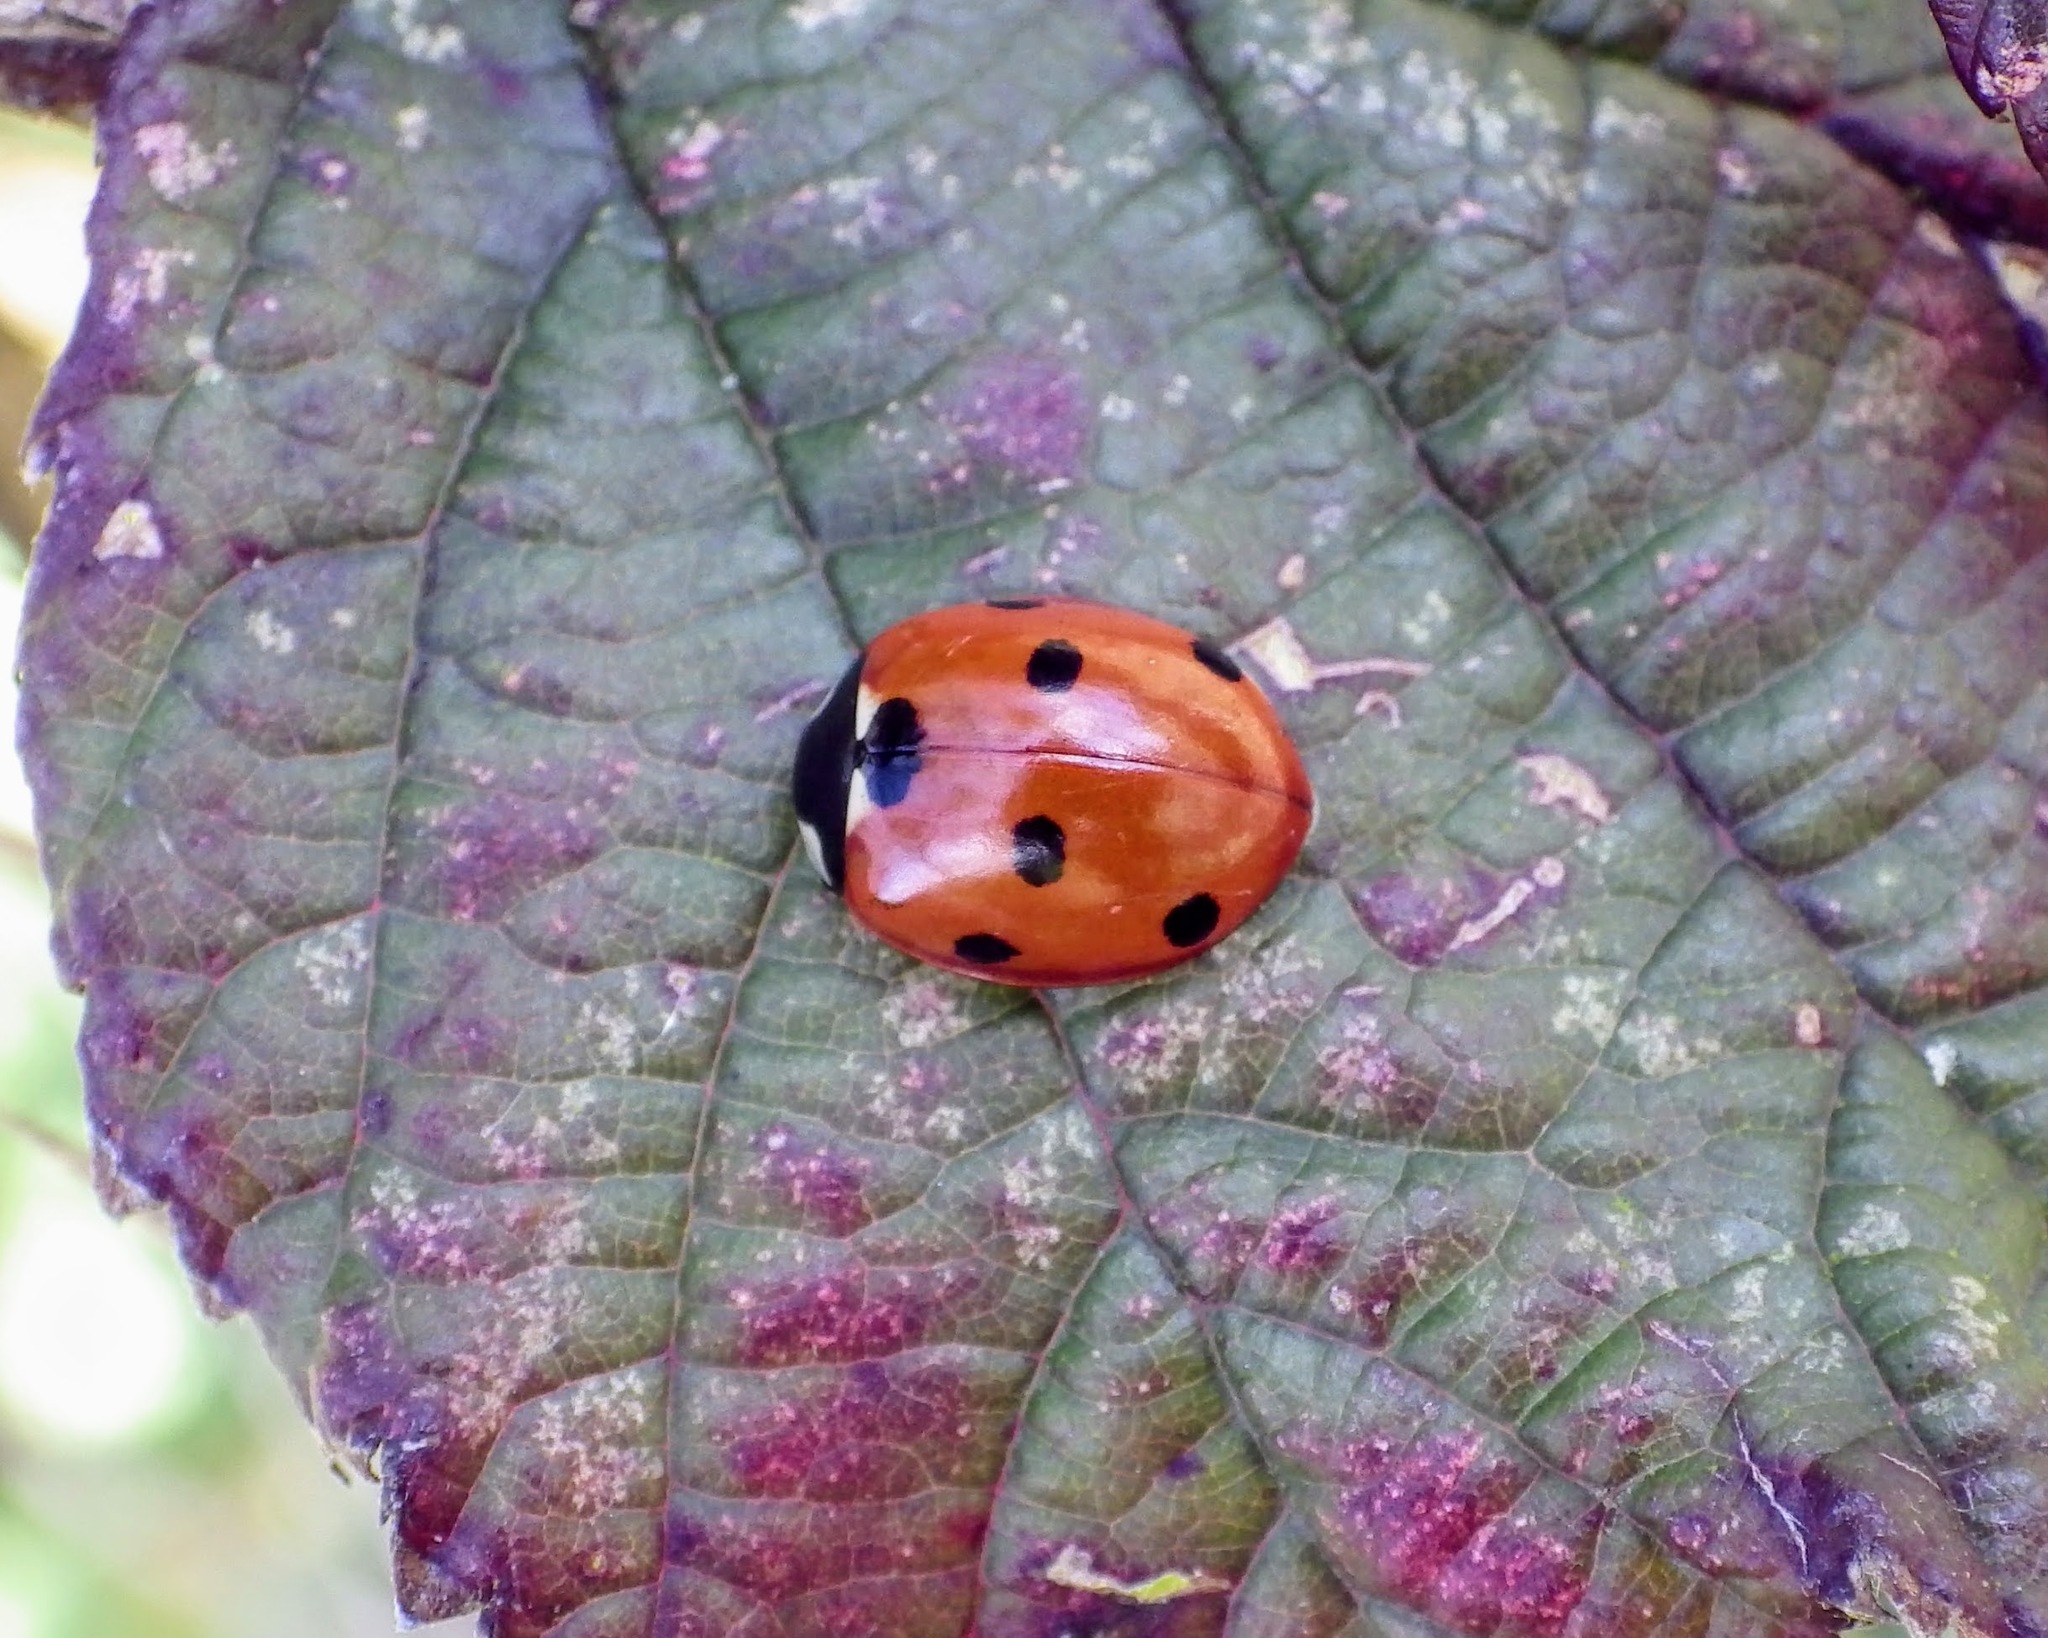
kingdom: Animalia
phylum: Arthropoda
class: Insecta
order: Coleoptera
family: Coccinellidae
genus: Coccinella
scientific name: Coccinella septempunctata
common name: Sevenspotted lady beetle
